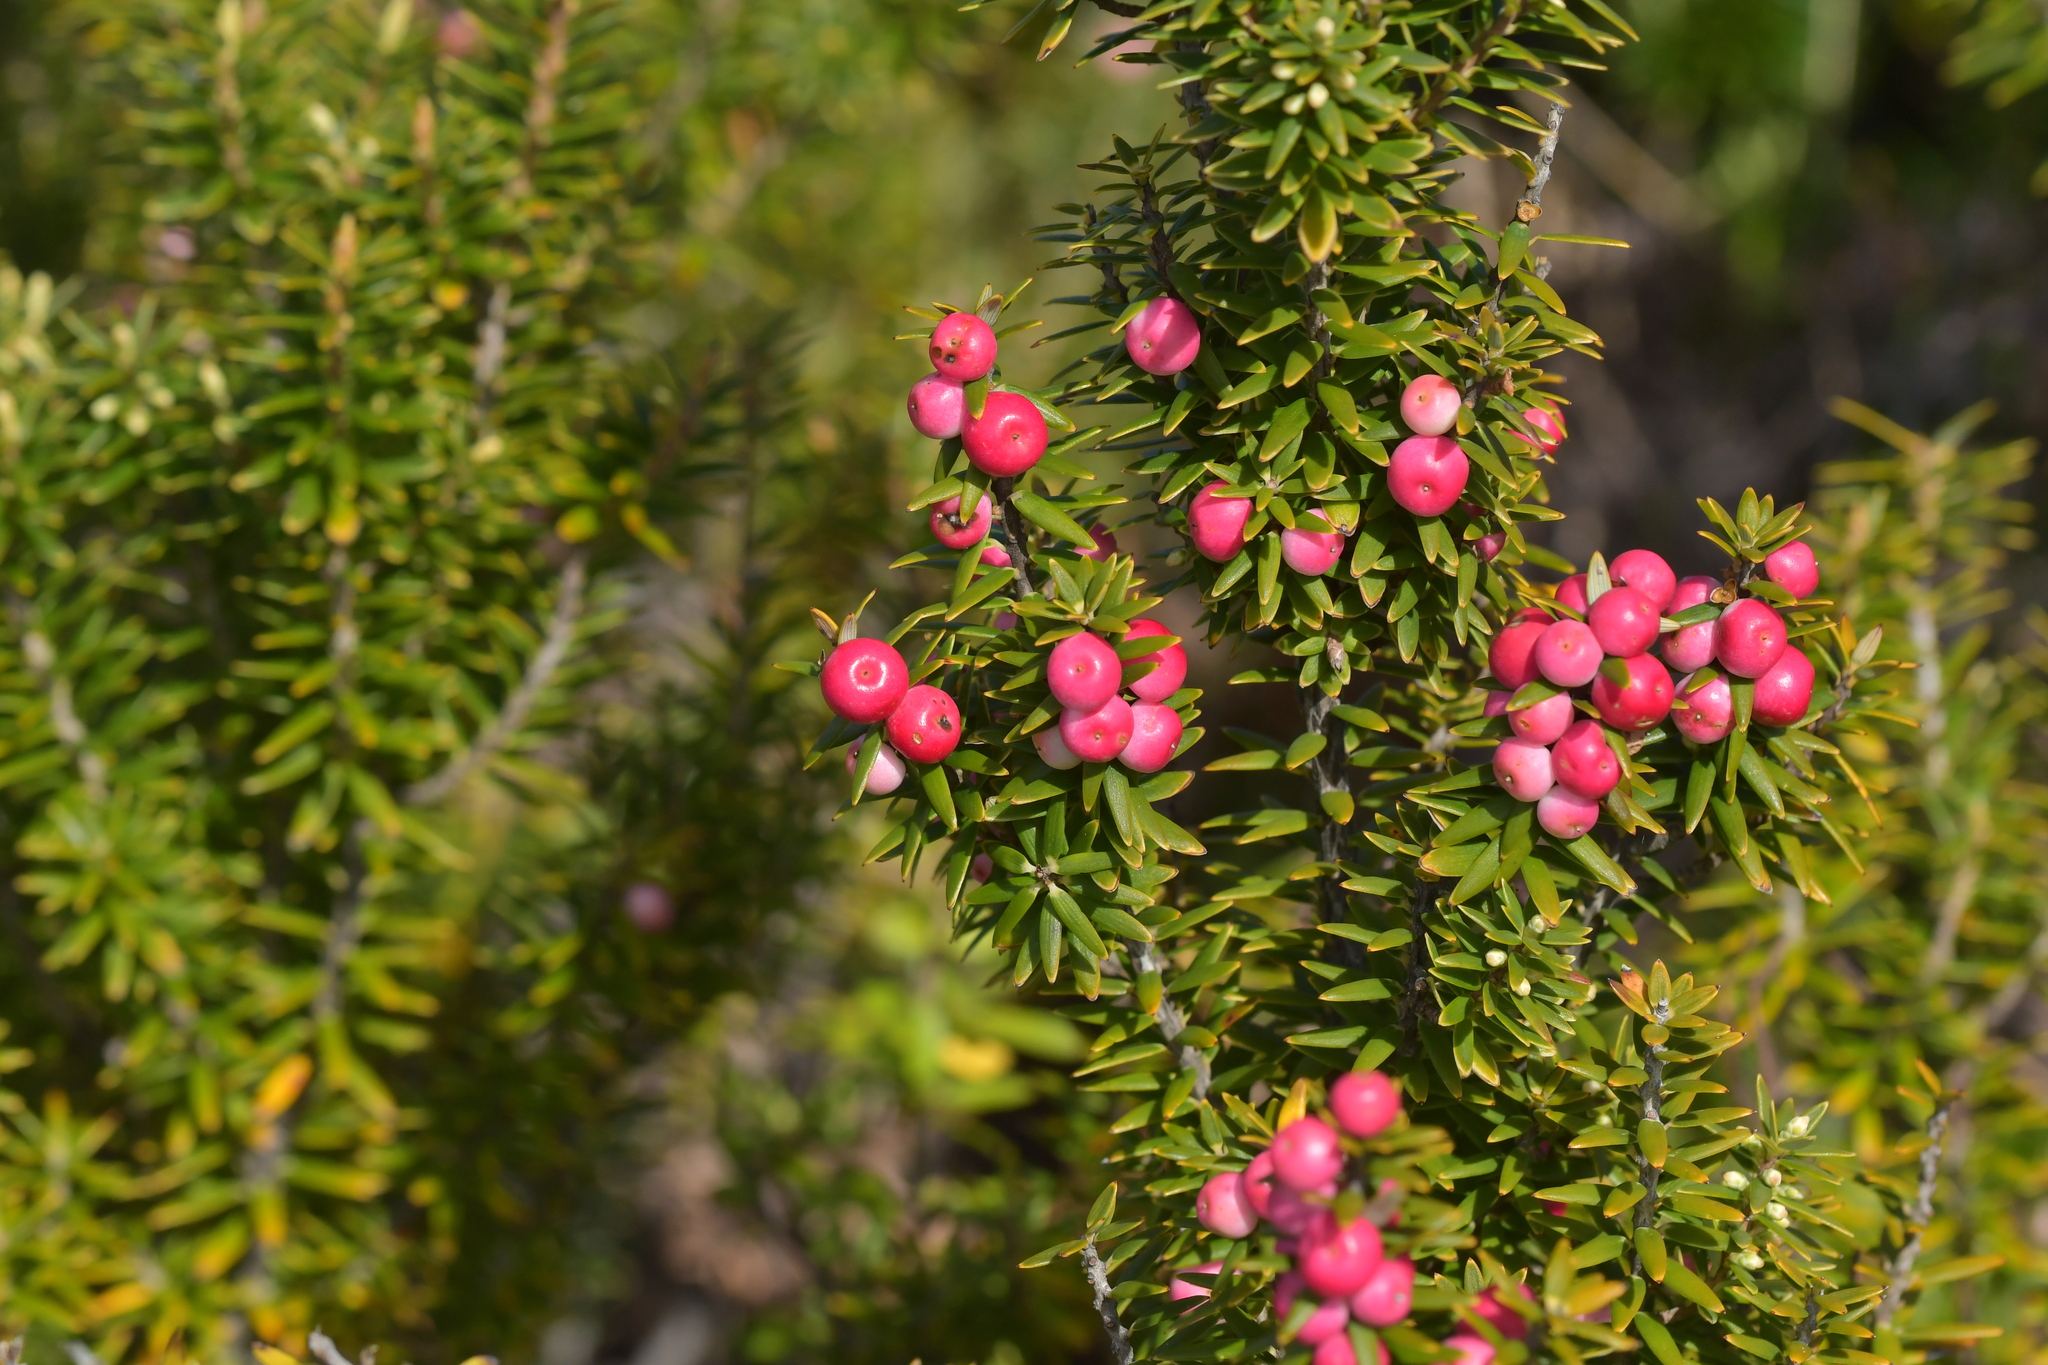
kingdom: Plantae
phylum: Tracheophyta
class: Magnoliopsida
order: Ericales
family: Ericaceae
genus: Leptecophylla
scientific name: Leptecophylla robusta
